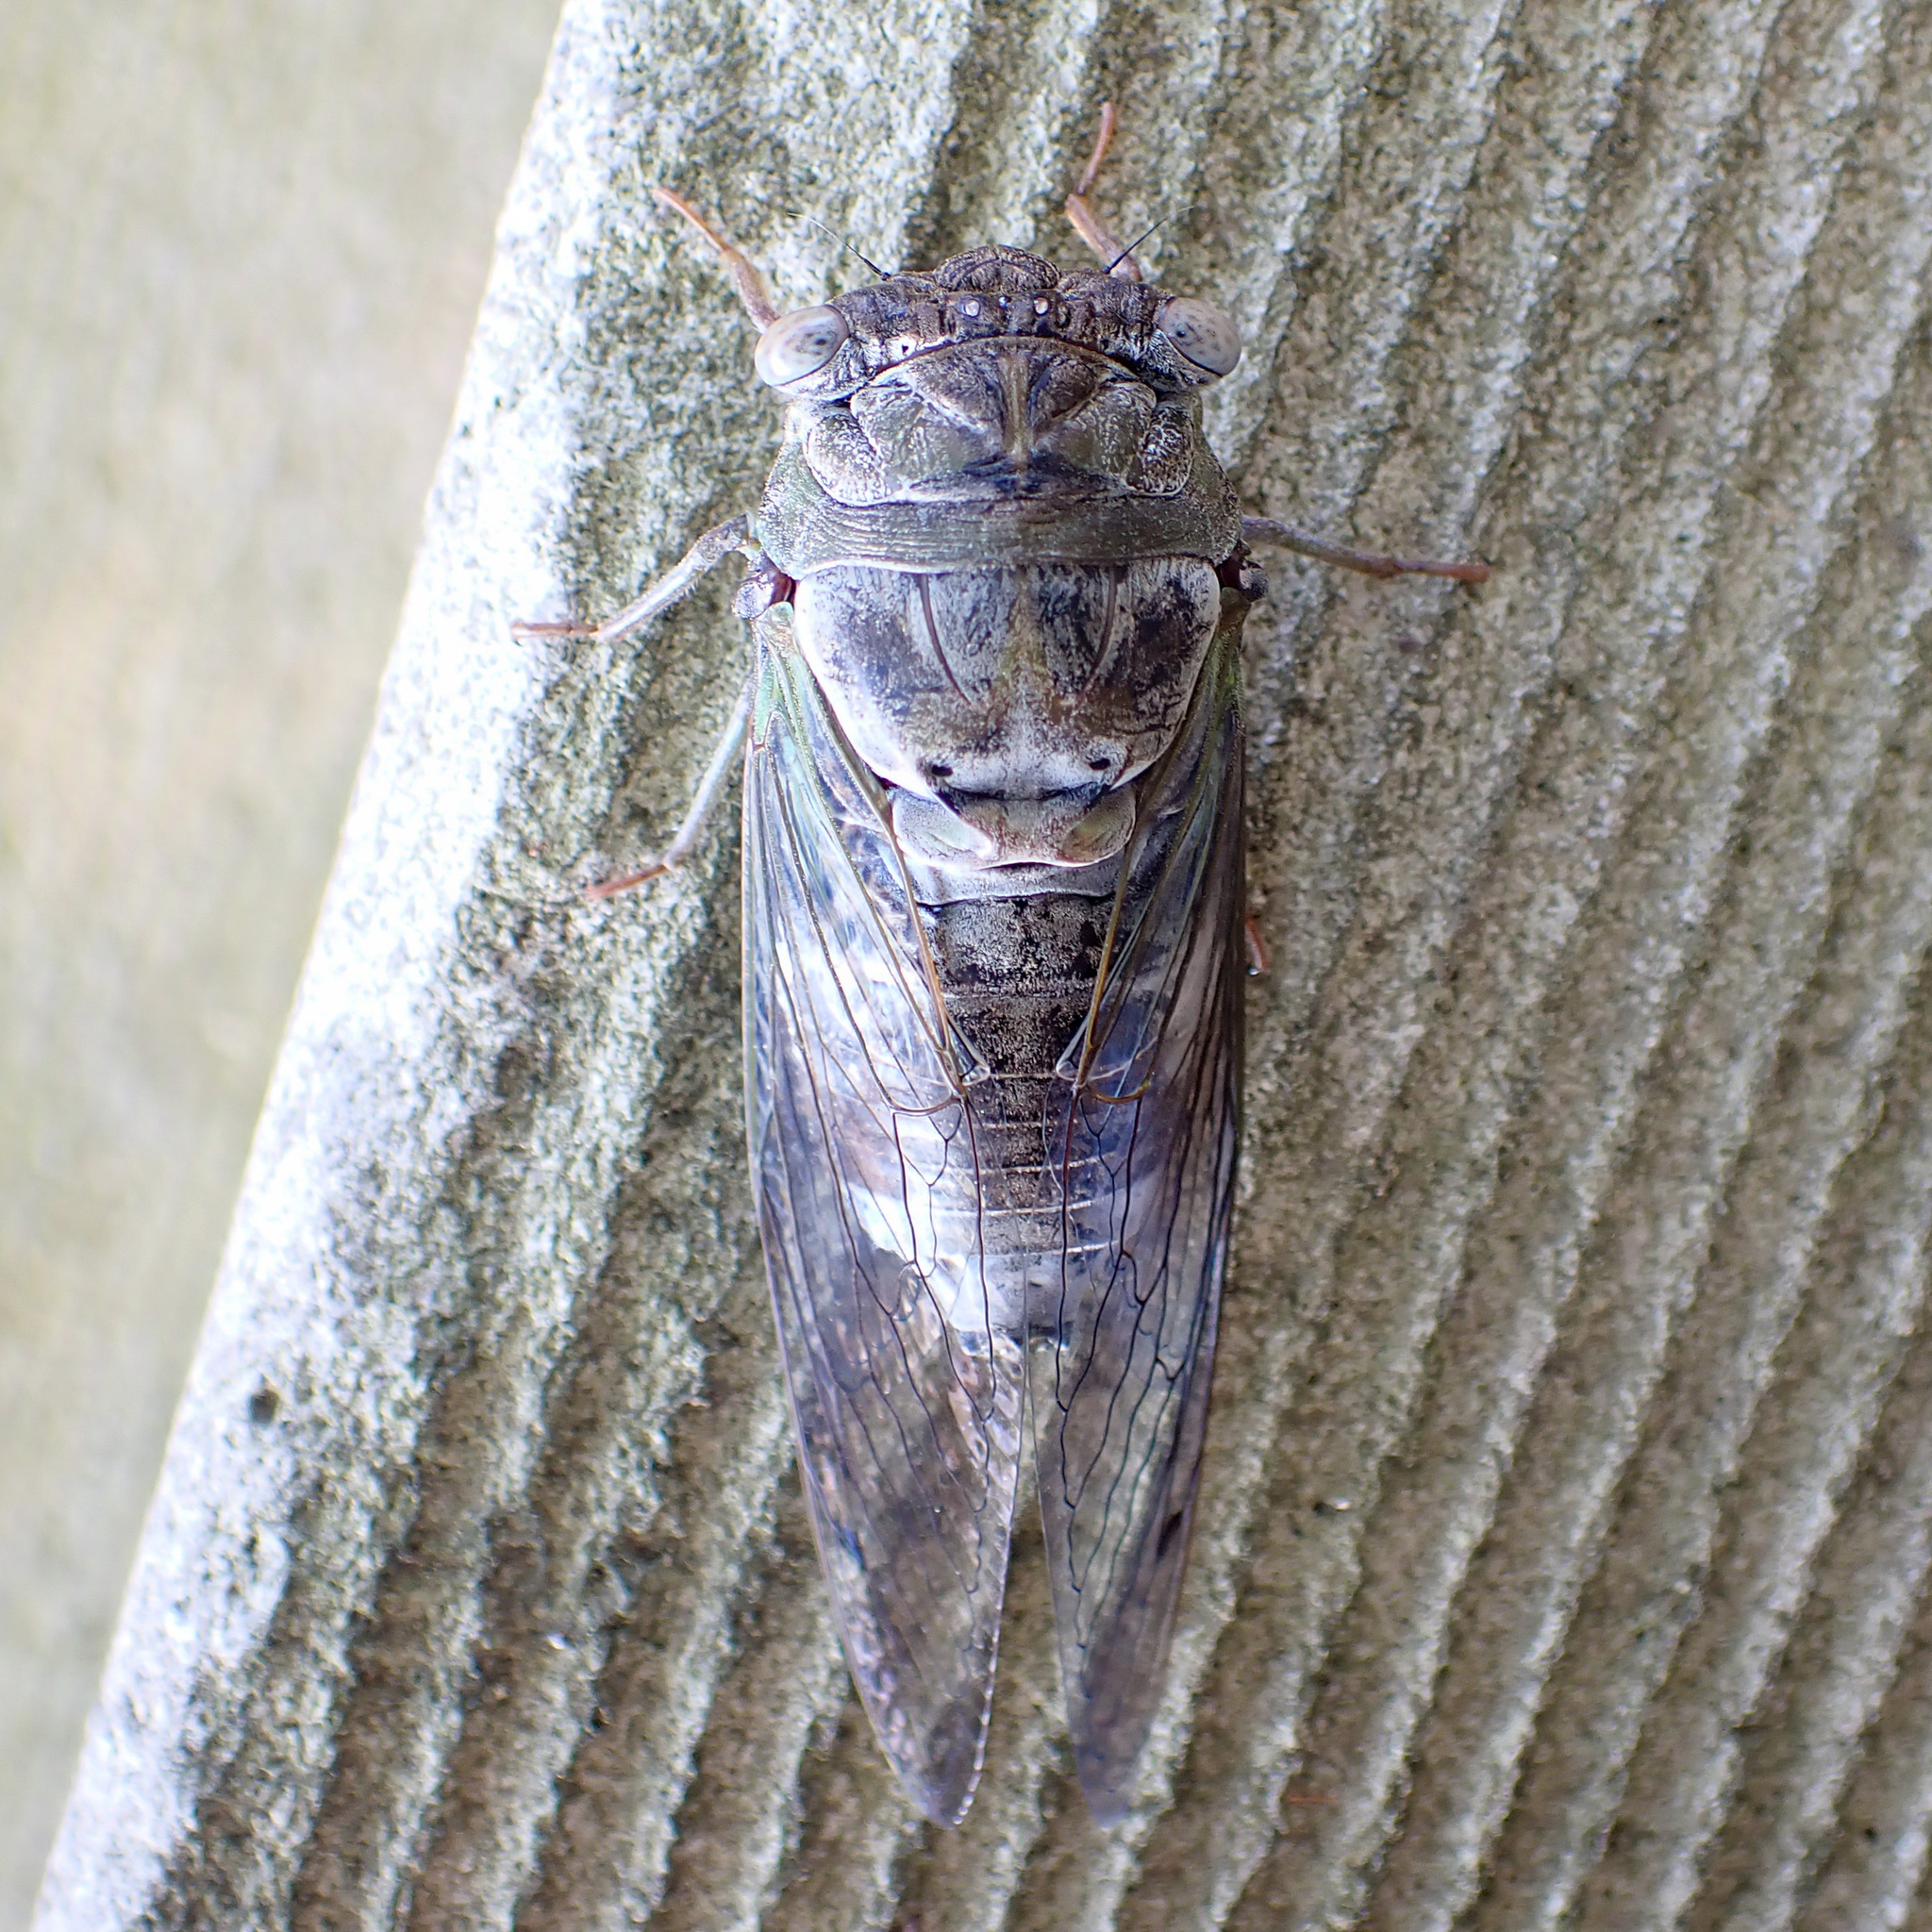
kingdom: Animalia
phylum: Arthropoda
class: Insecta
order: Hemiptera
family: Cicadidae
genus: Diceroprocta
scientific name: Diceroprocta grossa
